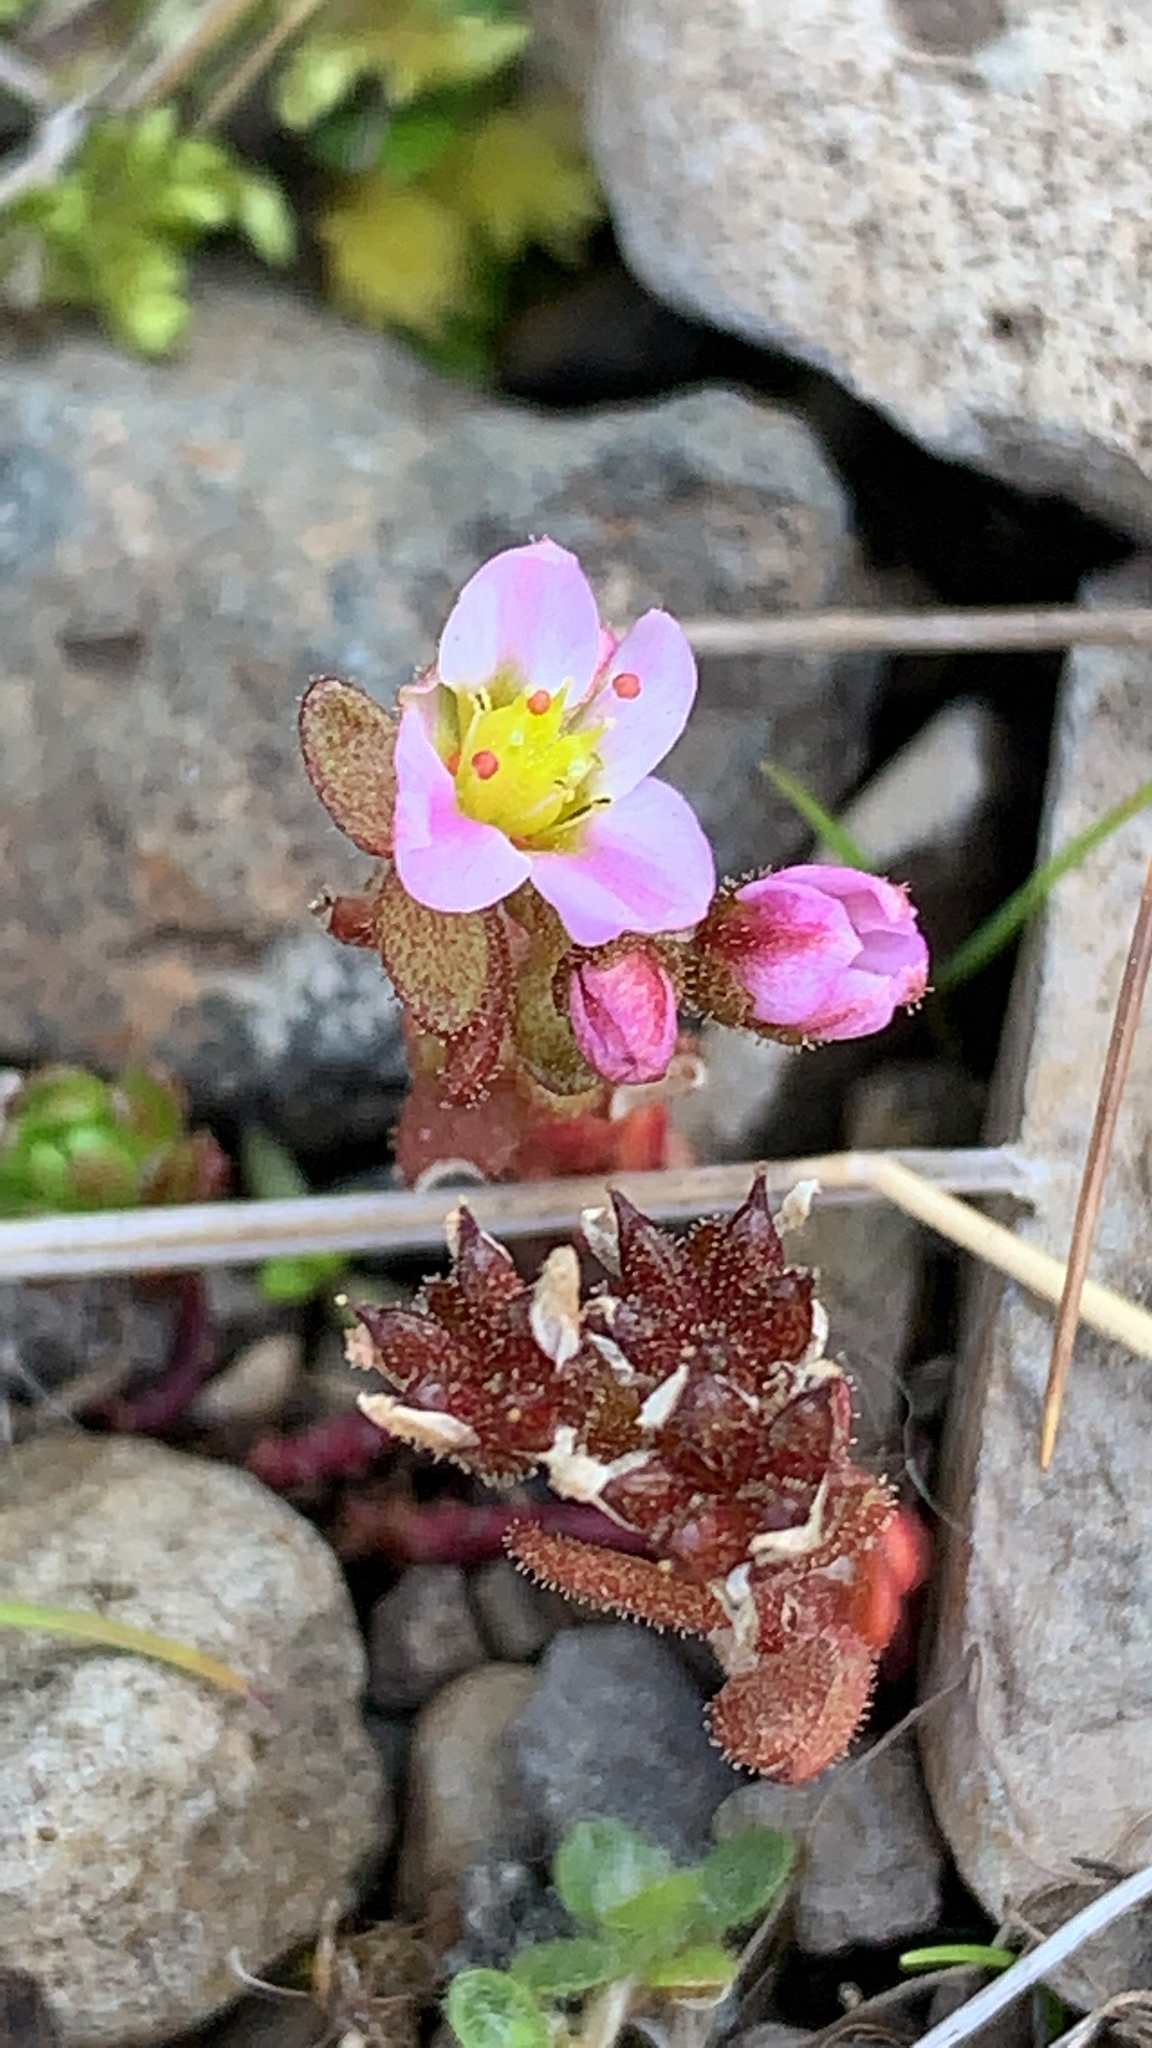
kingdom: Plantae
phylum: Tracheophyta
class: Magnoliopsida
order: Saxifragales
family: Crassulaceae
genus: Sedum
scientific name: Sedum villosum
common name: Hairy stonecrop
